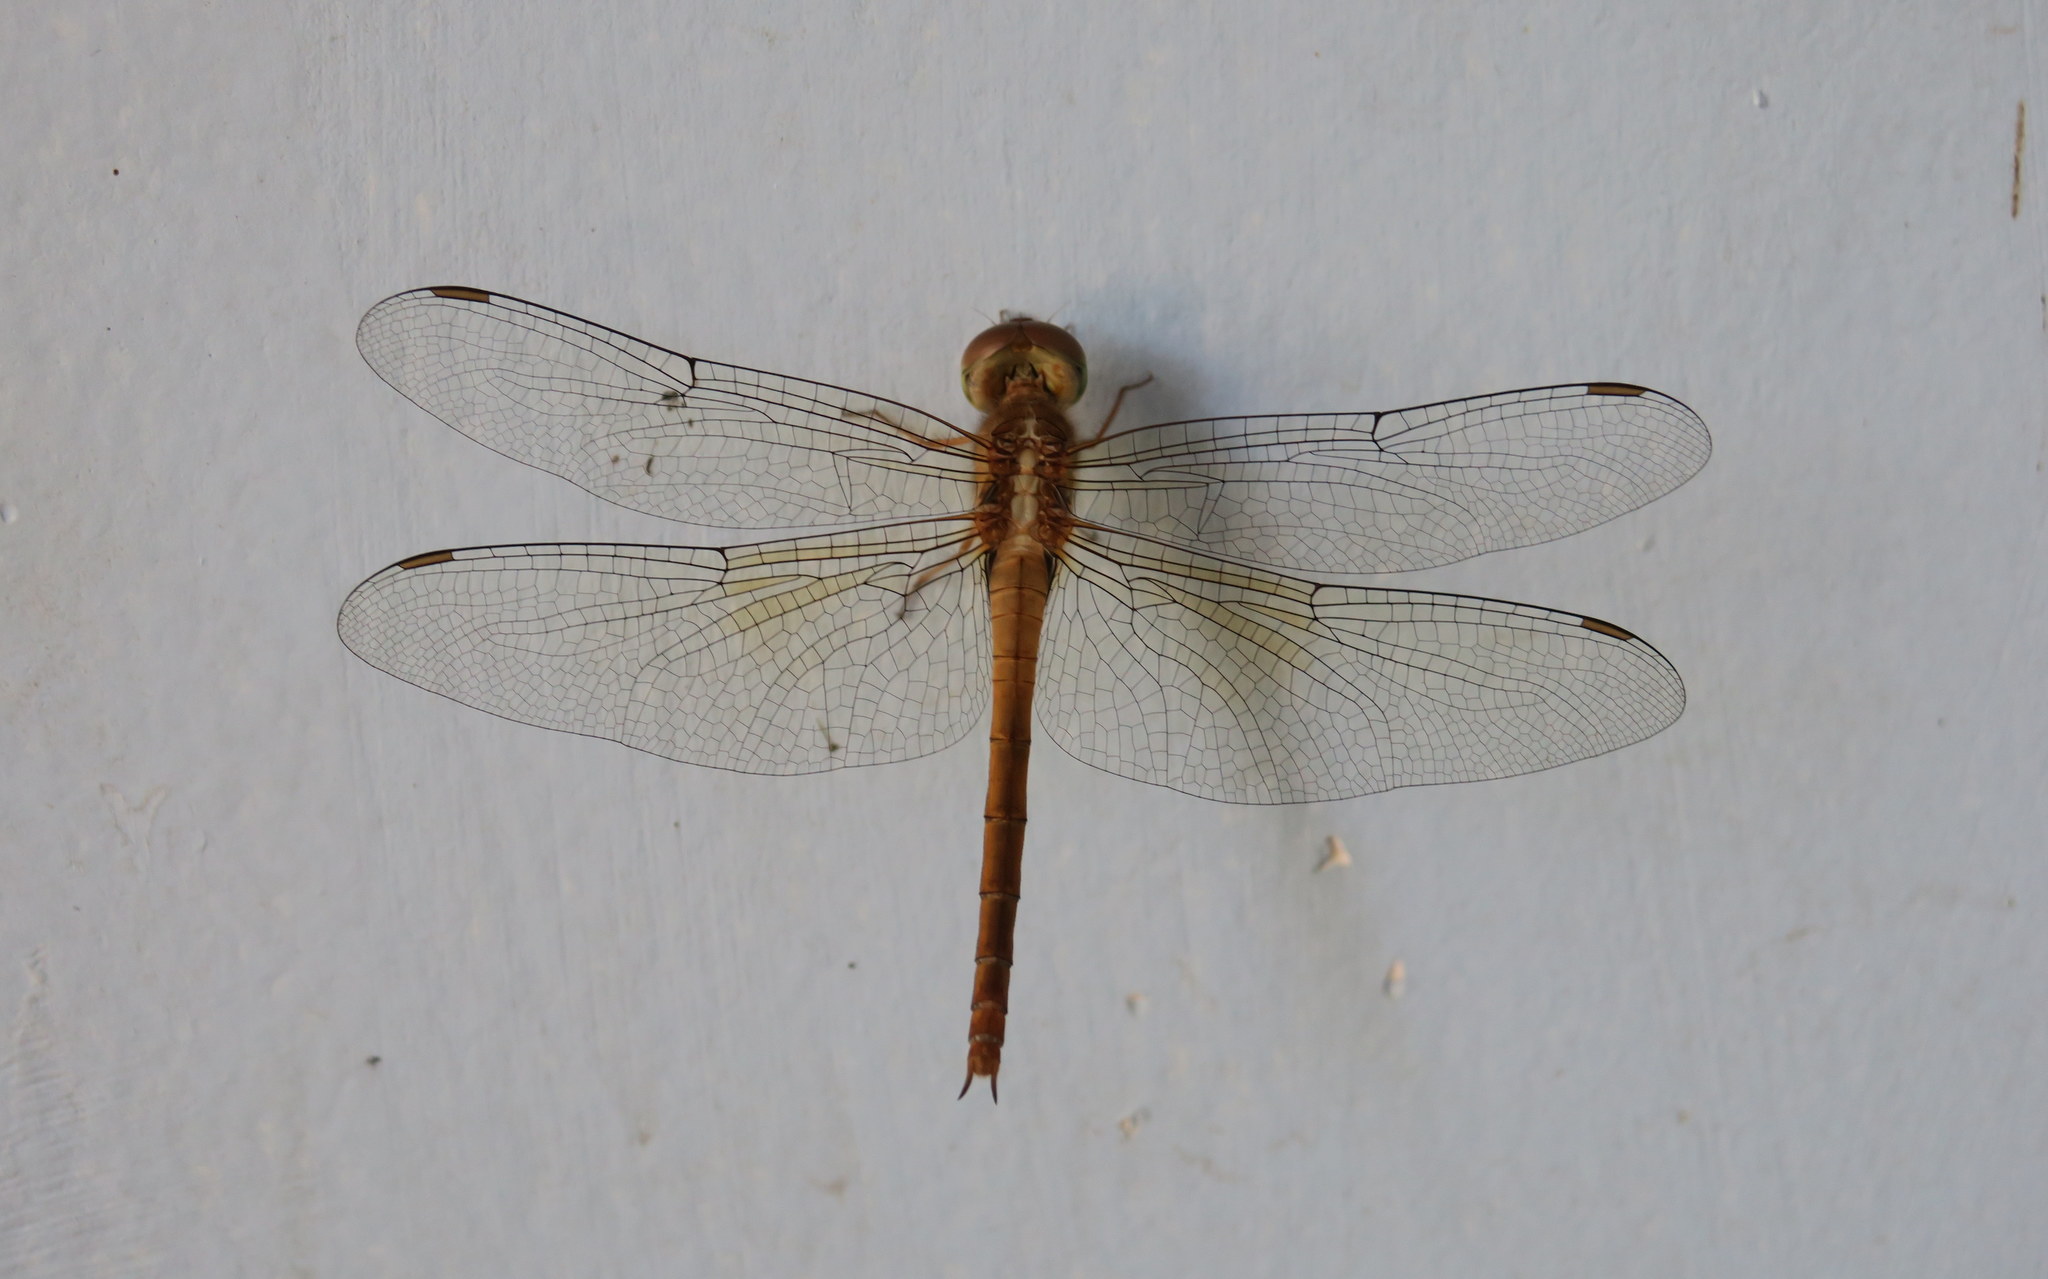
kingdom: Animalia
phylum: Arthropoda
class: Insecta
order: Odonata
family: Libellulidae
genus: Tholymis
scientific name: Tholymis tillarga
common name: Coral-tailed cloud wing
